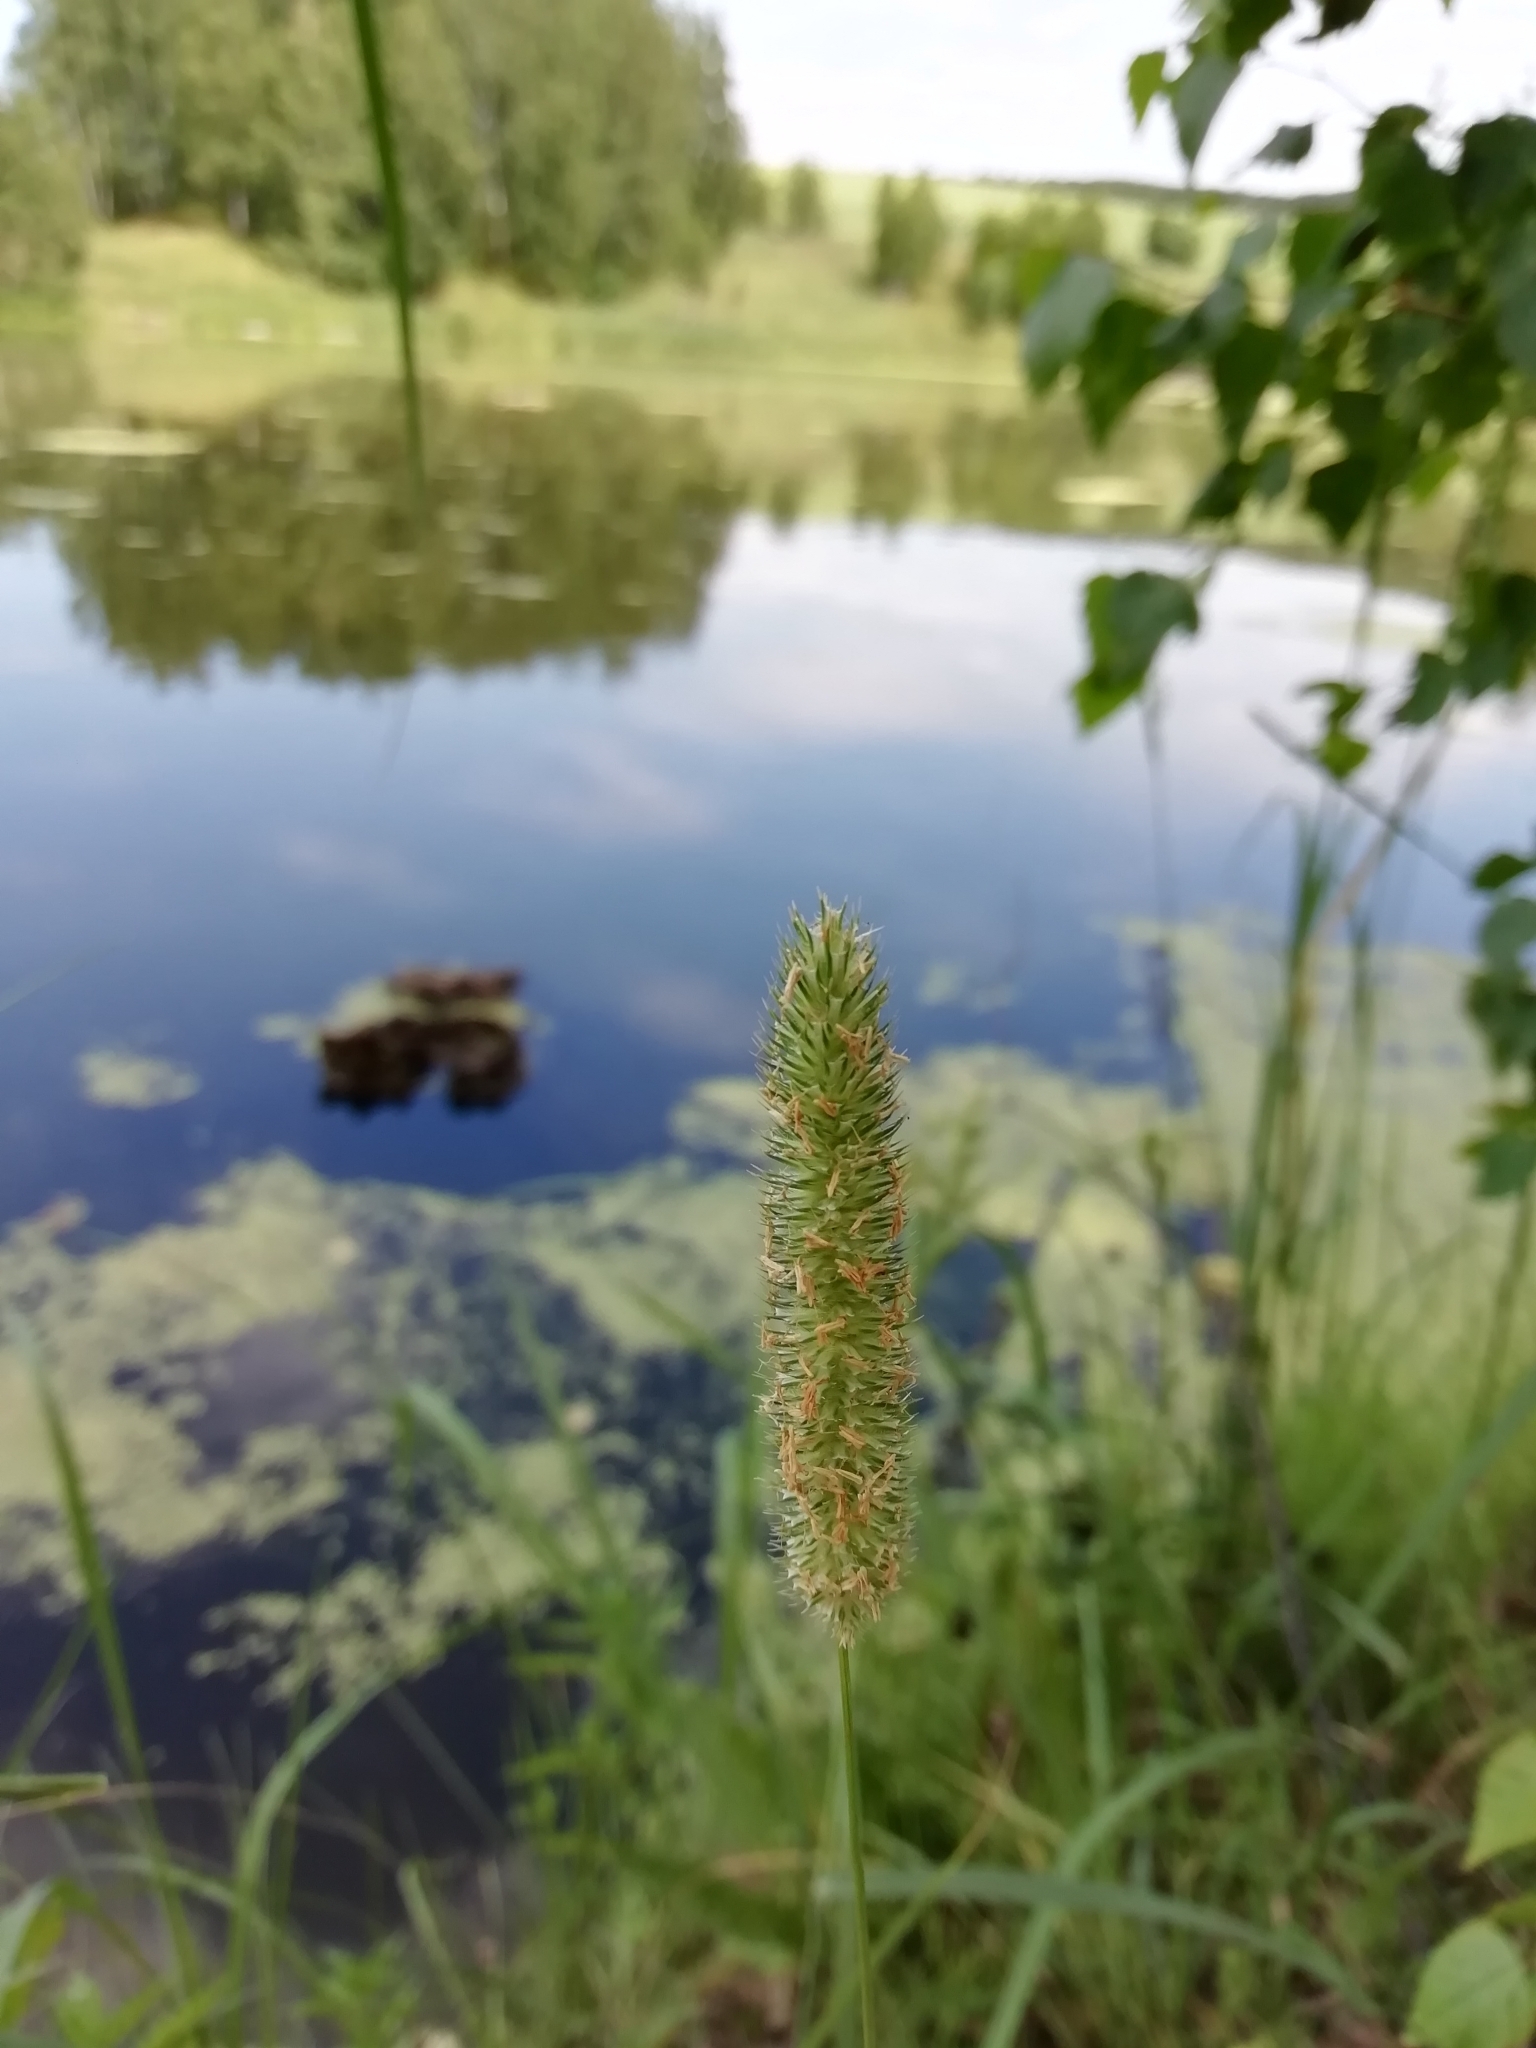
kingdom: Plantae
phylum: Tracheophyta
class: Liliopsida
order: Poales
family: Poaceae
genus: Phleum
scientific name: Phleum pratense
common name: Timothy grass
